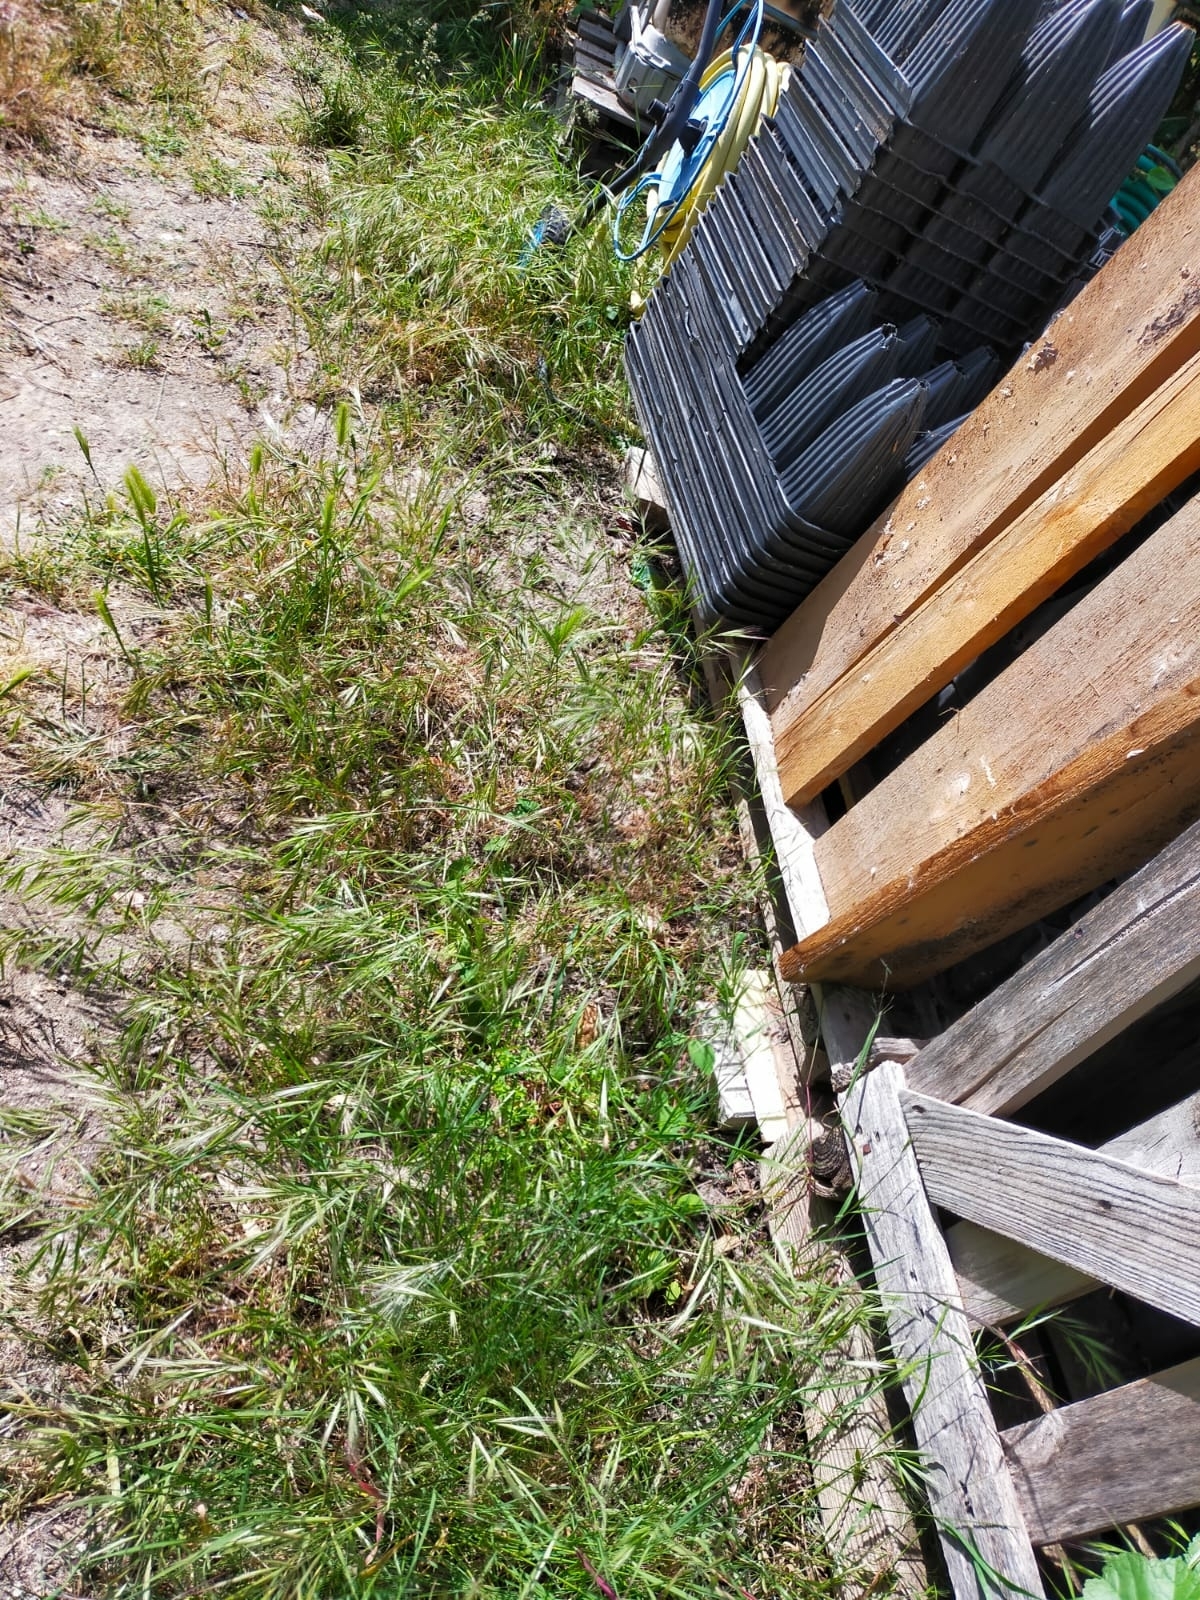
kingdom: Animalia
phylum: Chordata
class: Squamata
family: Lacertidae
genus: Timon
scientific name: Timon lepidus
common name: Ocellated lizard
